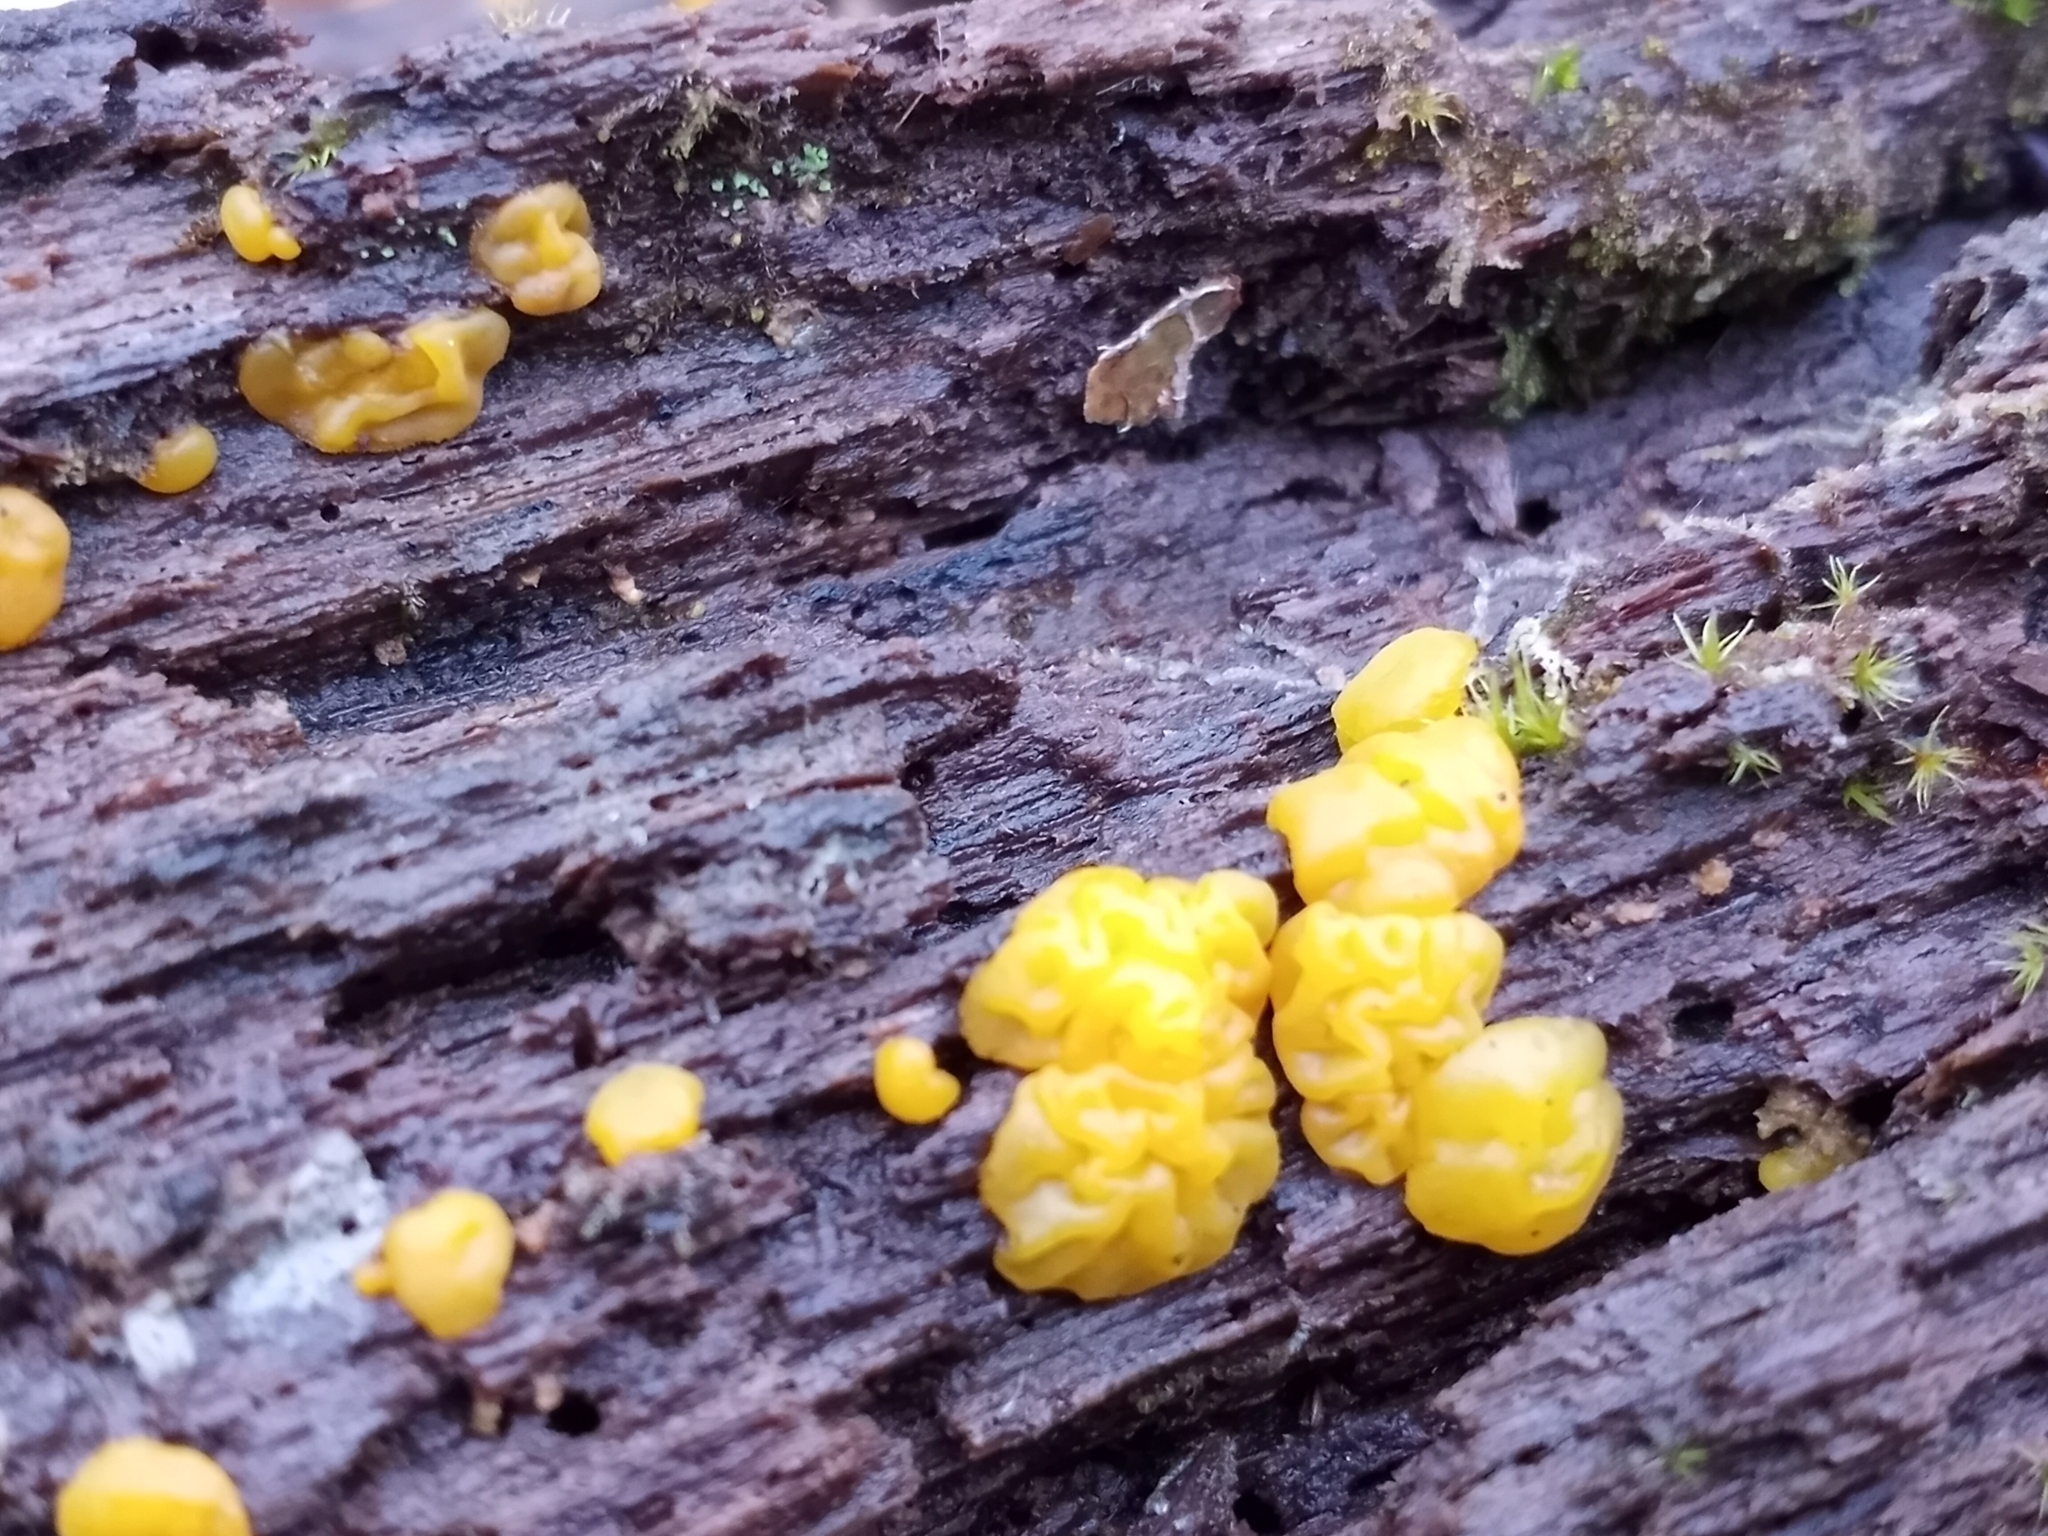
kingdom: Fungi
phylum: Basidiomycota
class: Dacrymycetes
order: Dacrymycetales
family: Dacrymycetaceae
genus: Dacrymyces
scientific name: Dacrymyces chrysospermus
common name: Orange jelly spot
